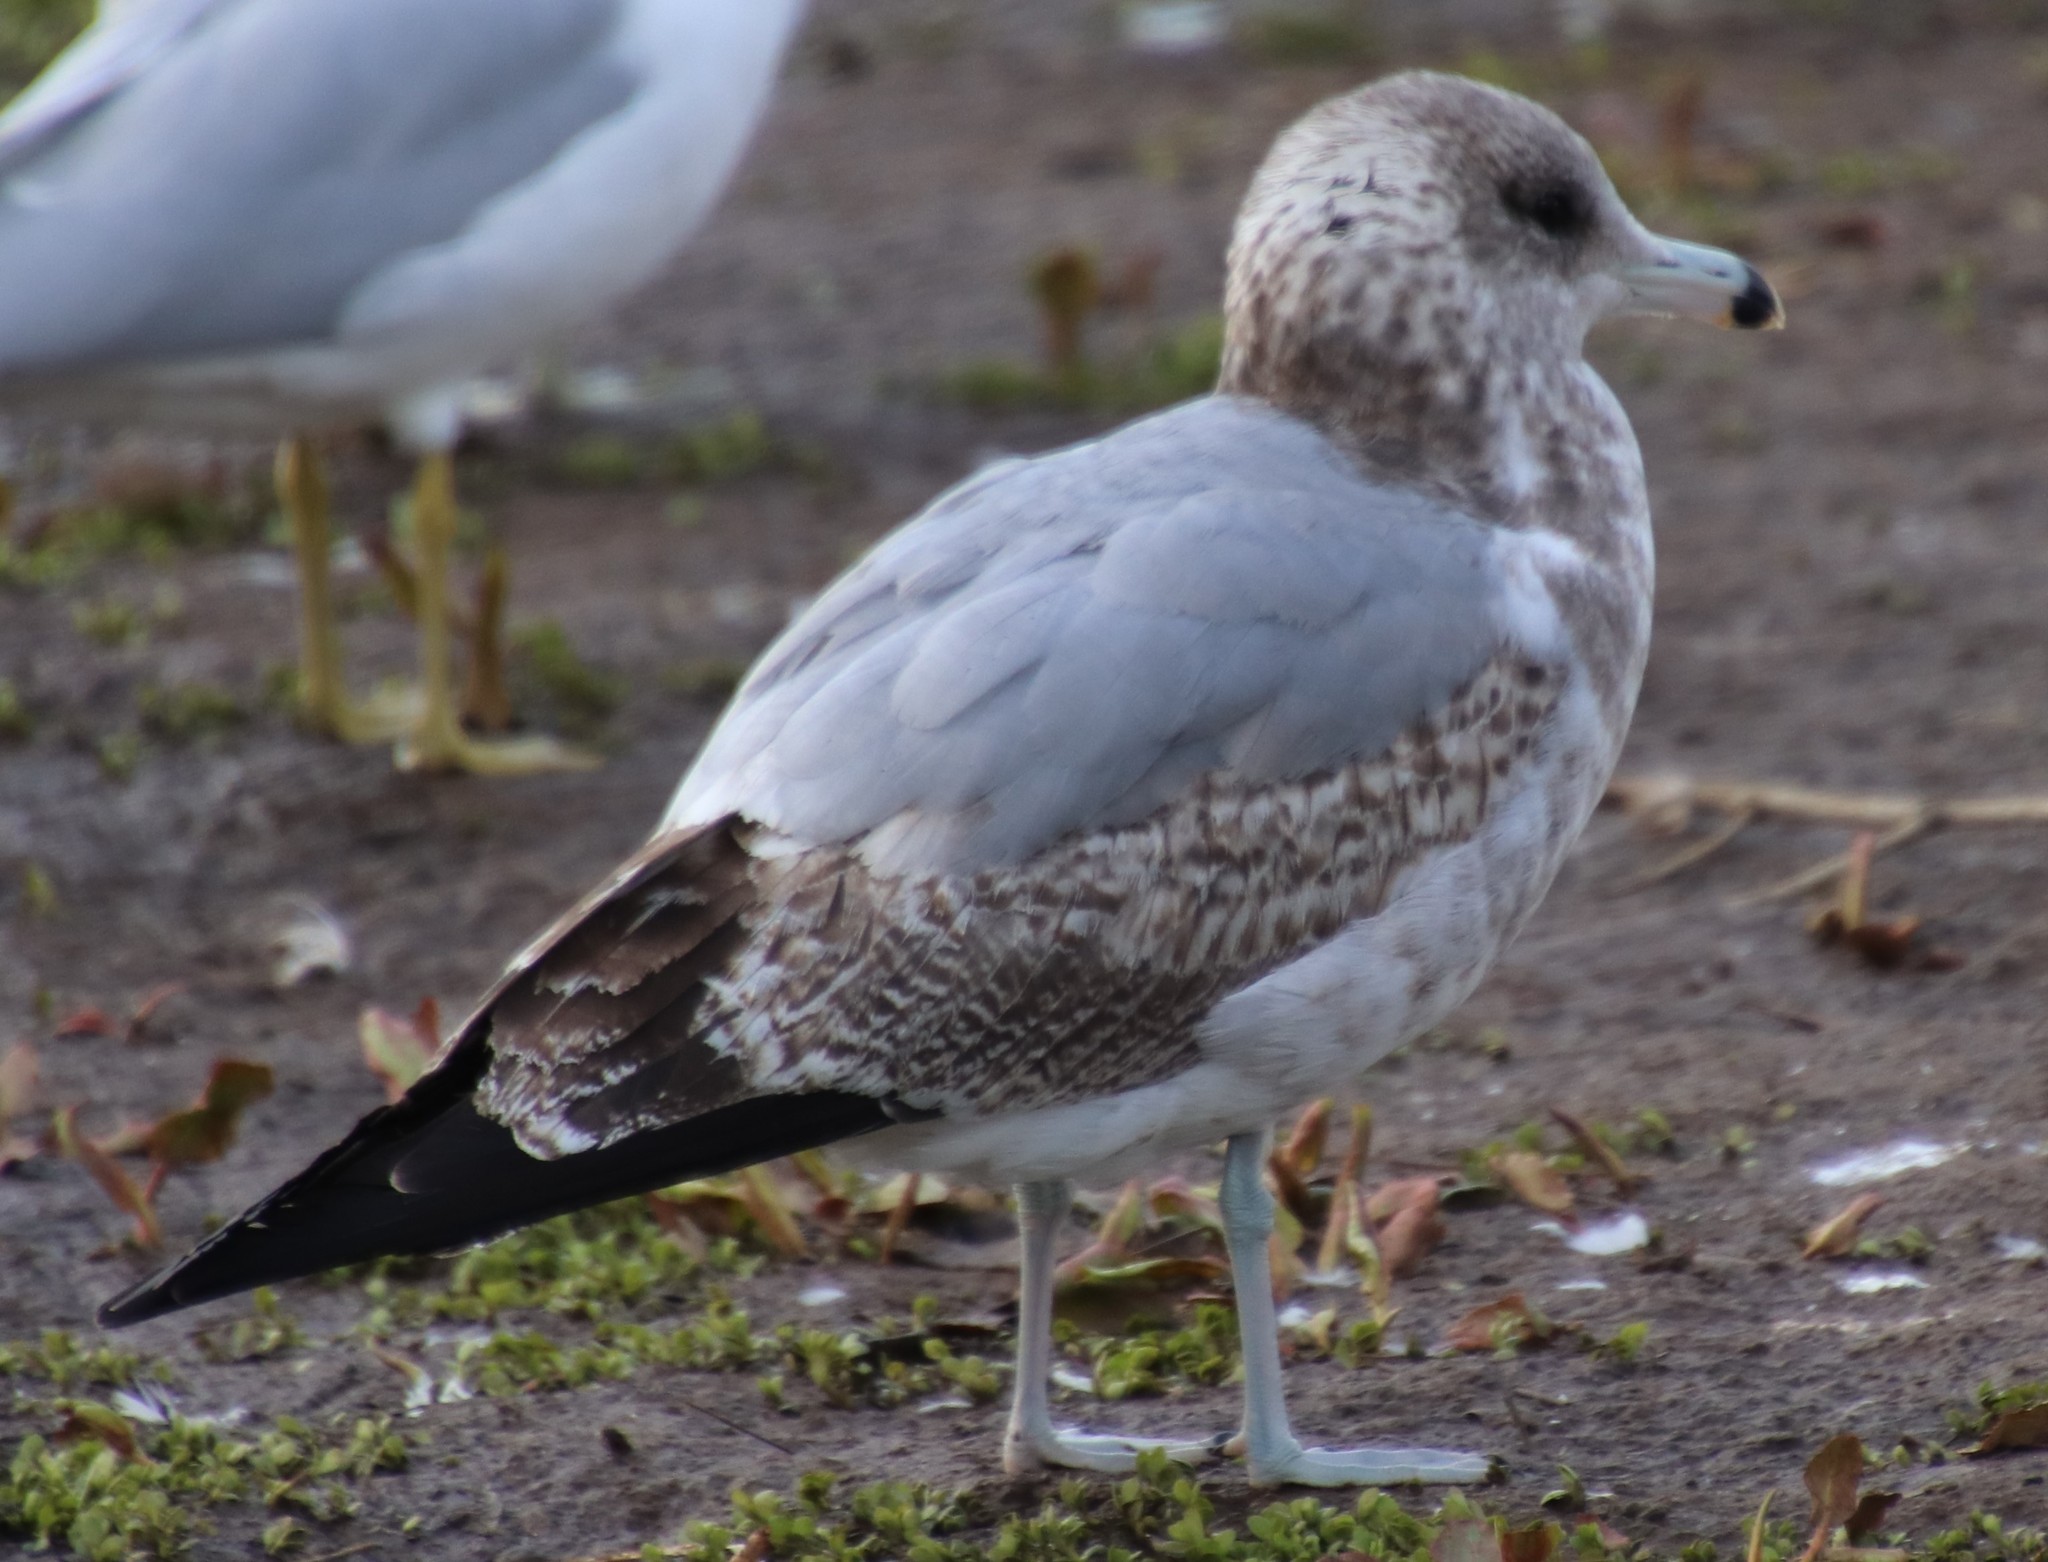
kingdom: Animalia
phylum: Chordata
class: Aves
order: Charadriiformes
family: Laridae
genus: Larus
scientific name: Larus californicus
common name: California gull
